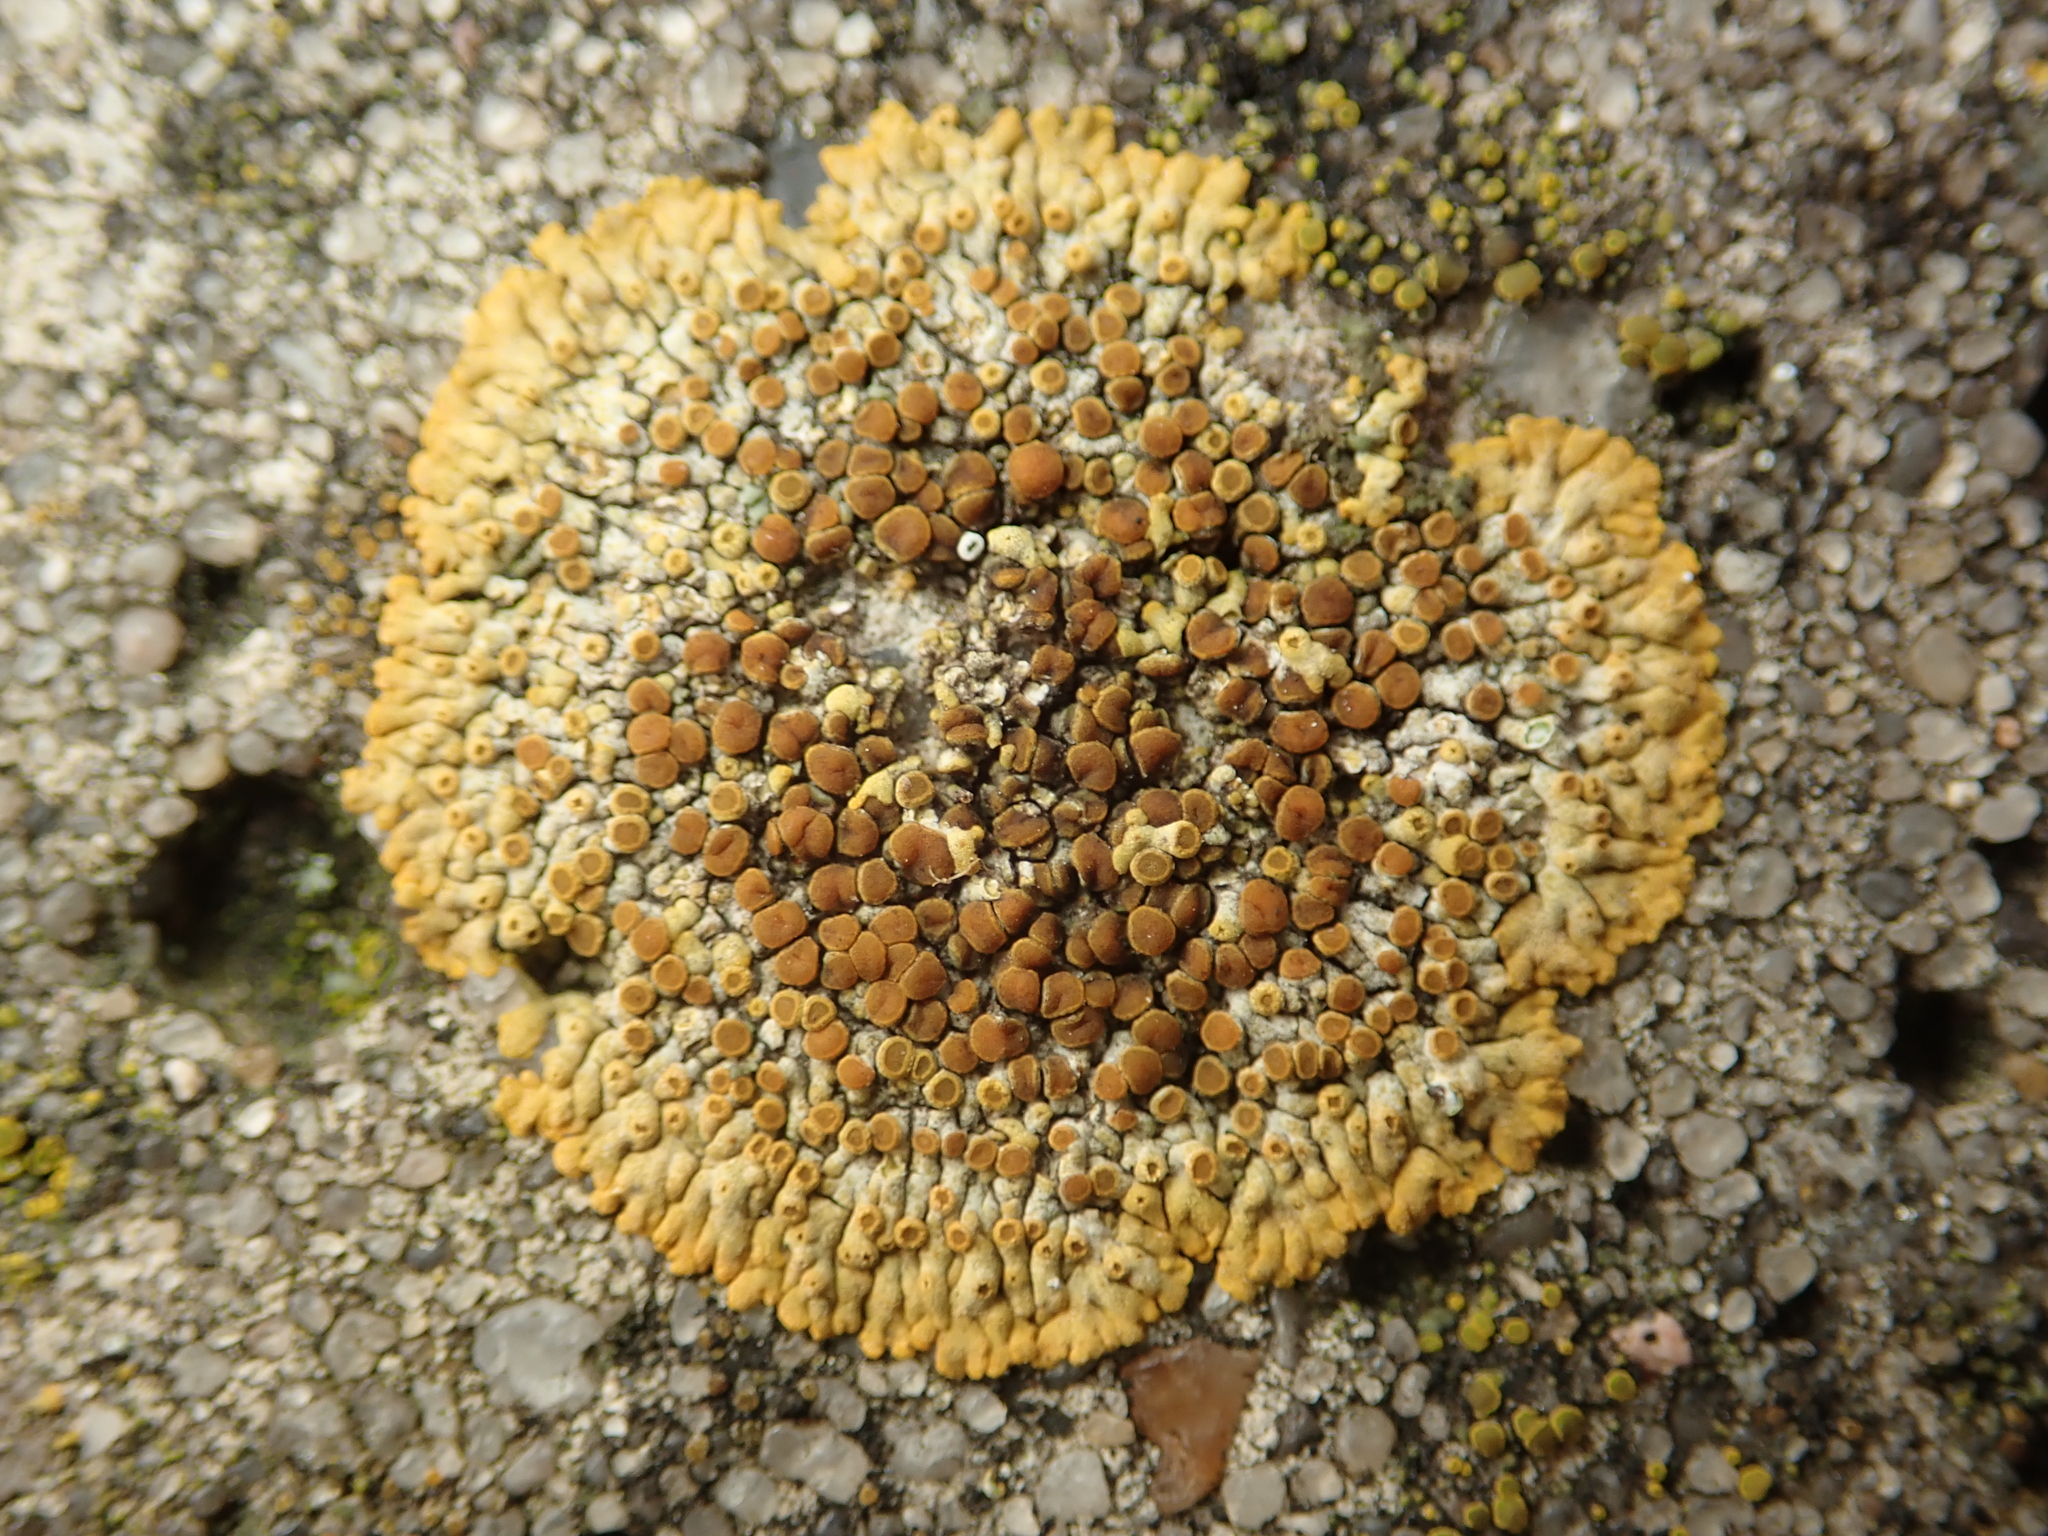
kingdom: Fungi
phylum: Ascomycota
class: Lecanoromycetes
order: Teloschistales
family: Teloschistaceae
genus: Calogaya
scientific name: Calogaya pusilla
